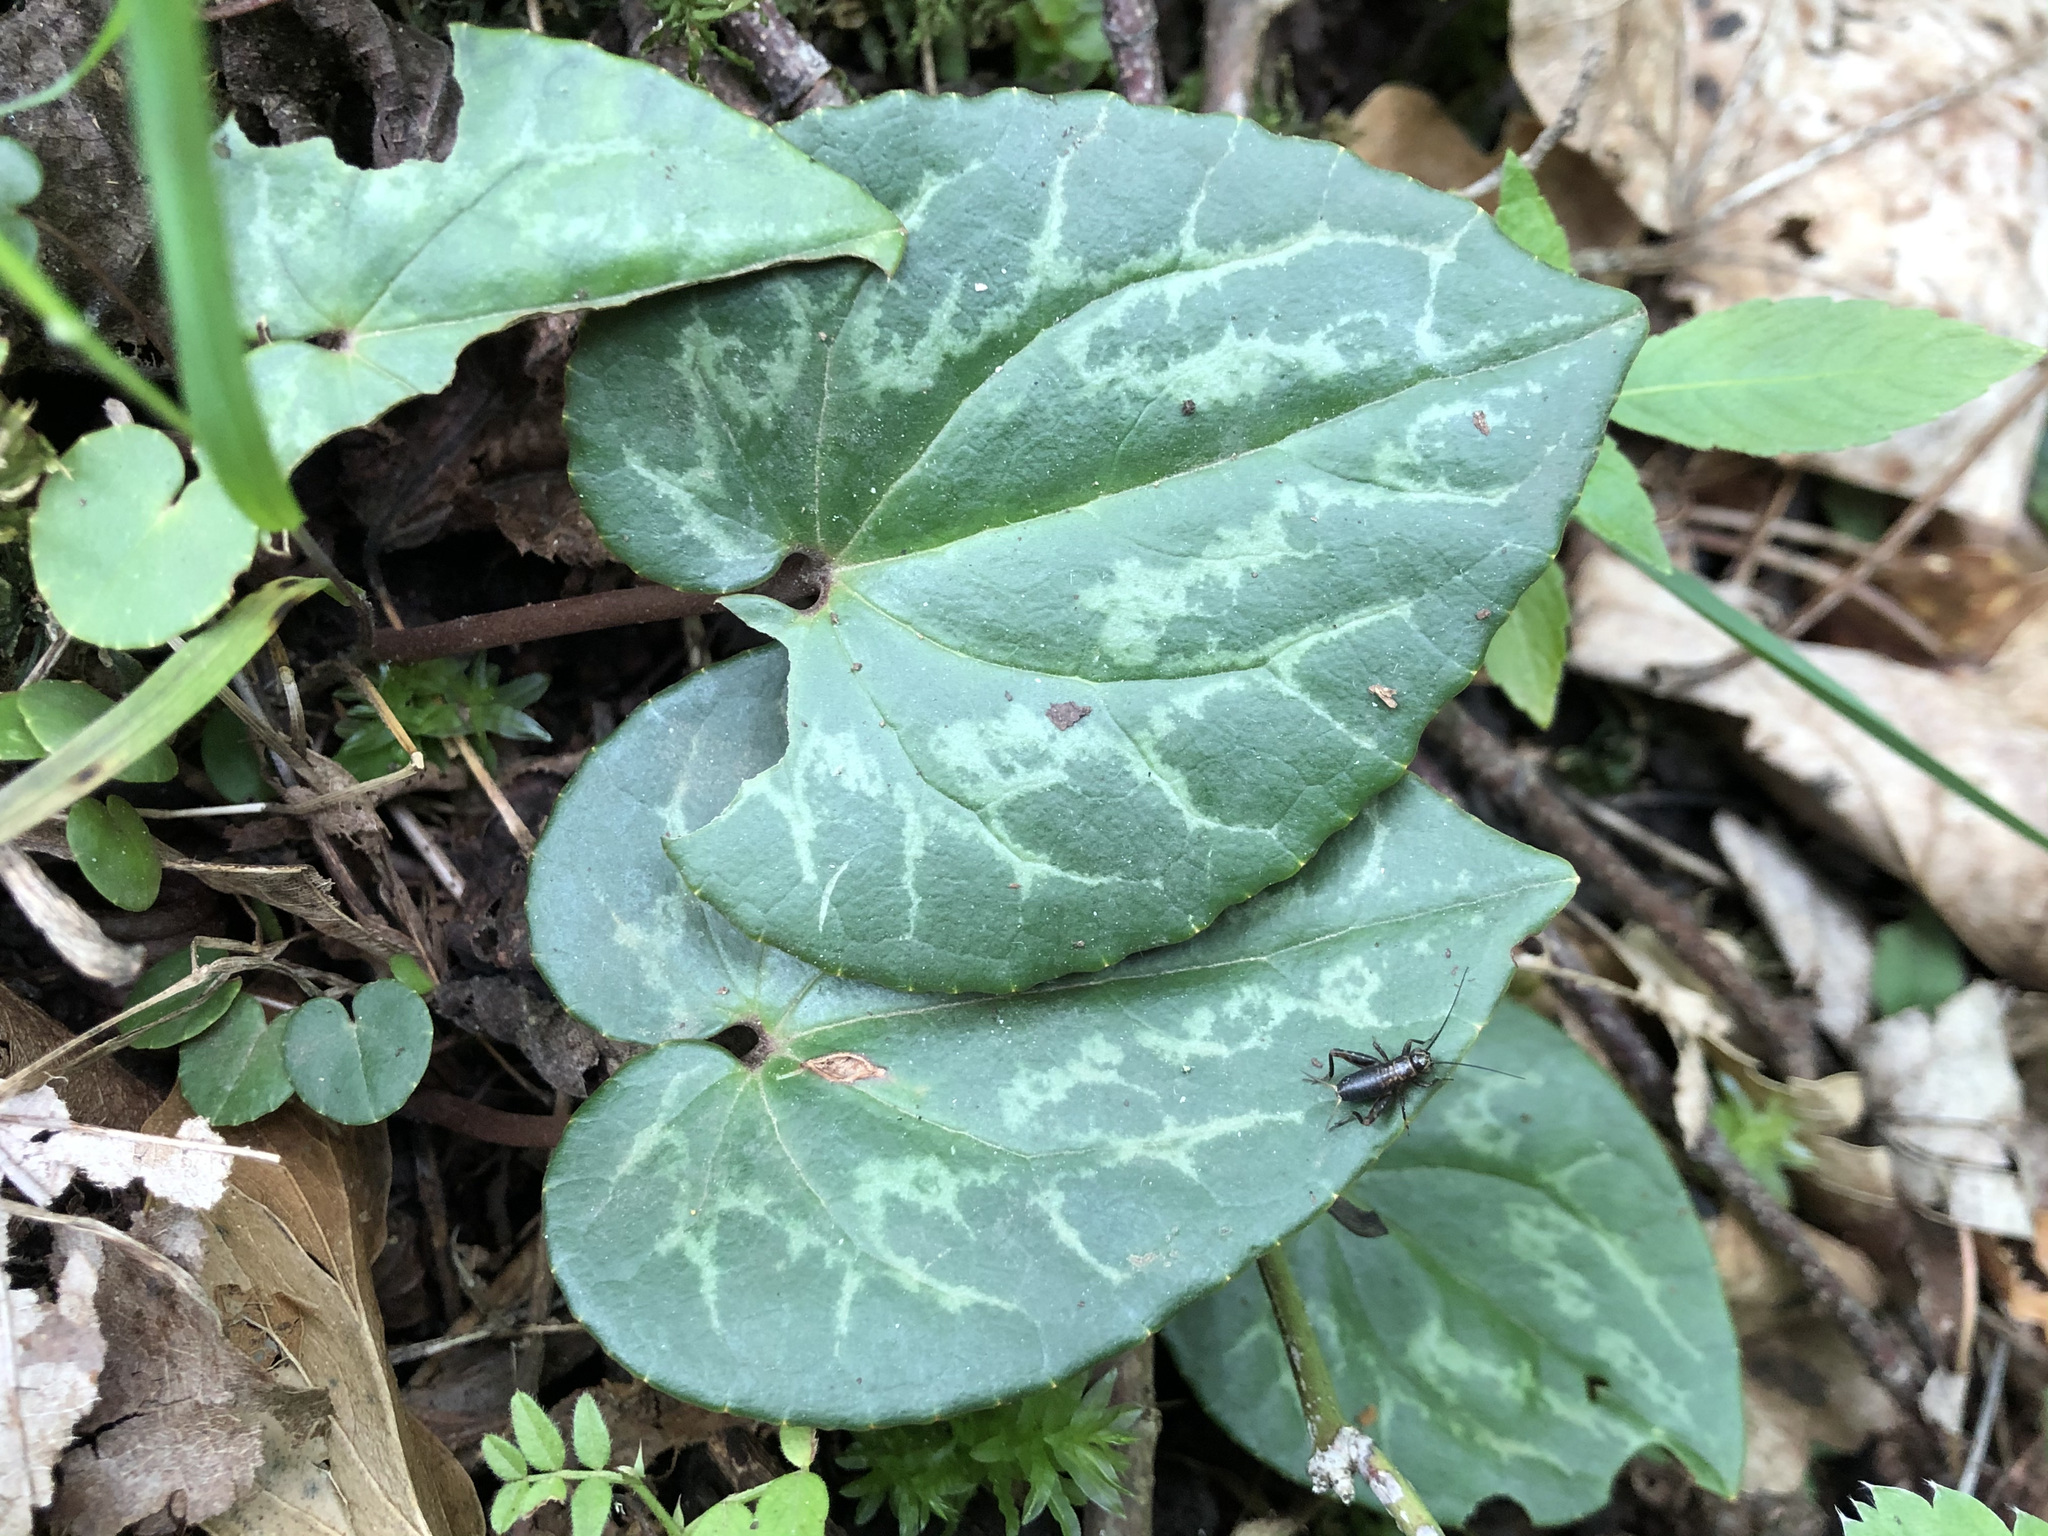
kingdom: Animalia
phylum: Arthropoda
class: Insecta
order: Orthoptera
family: Trigonidiidae
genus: Nemobius
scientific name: Nemobius sylvestris
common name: Wood-cricket
